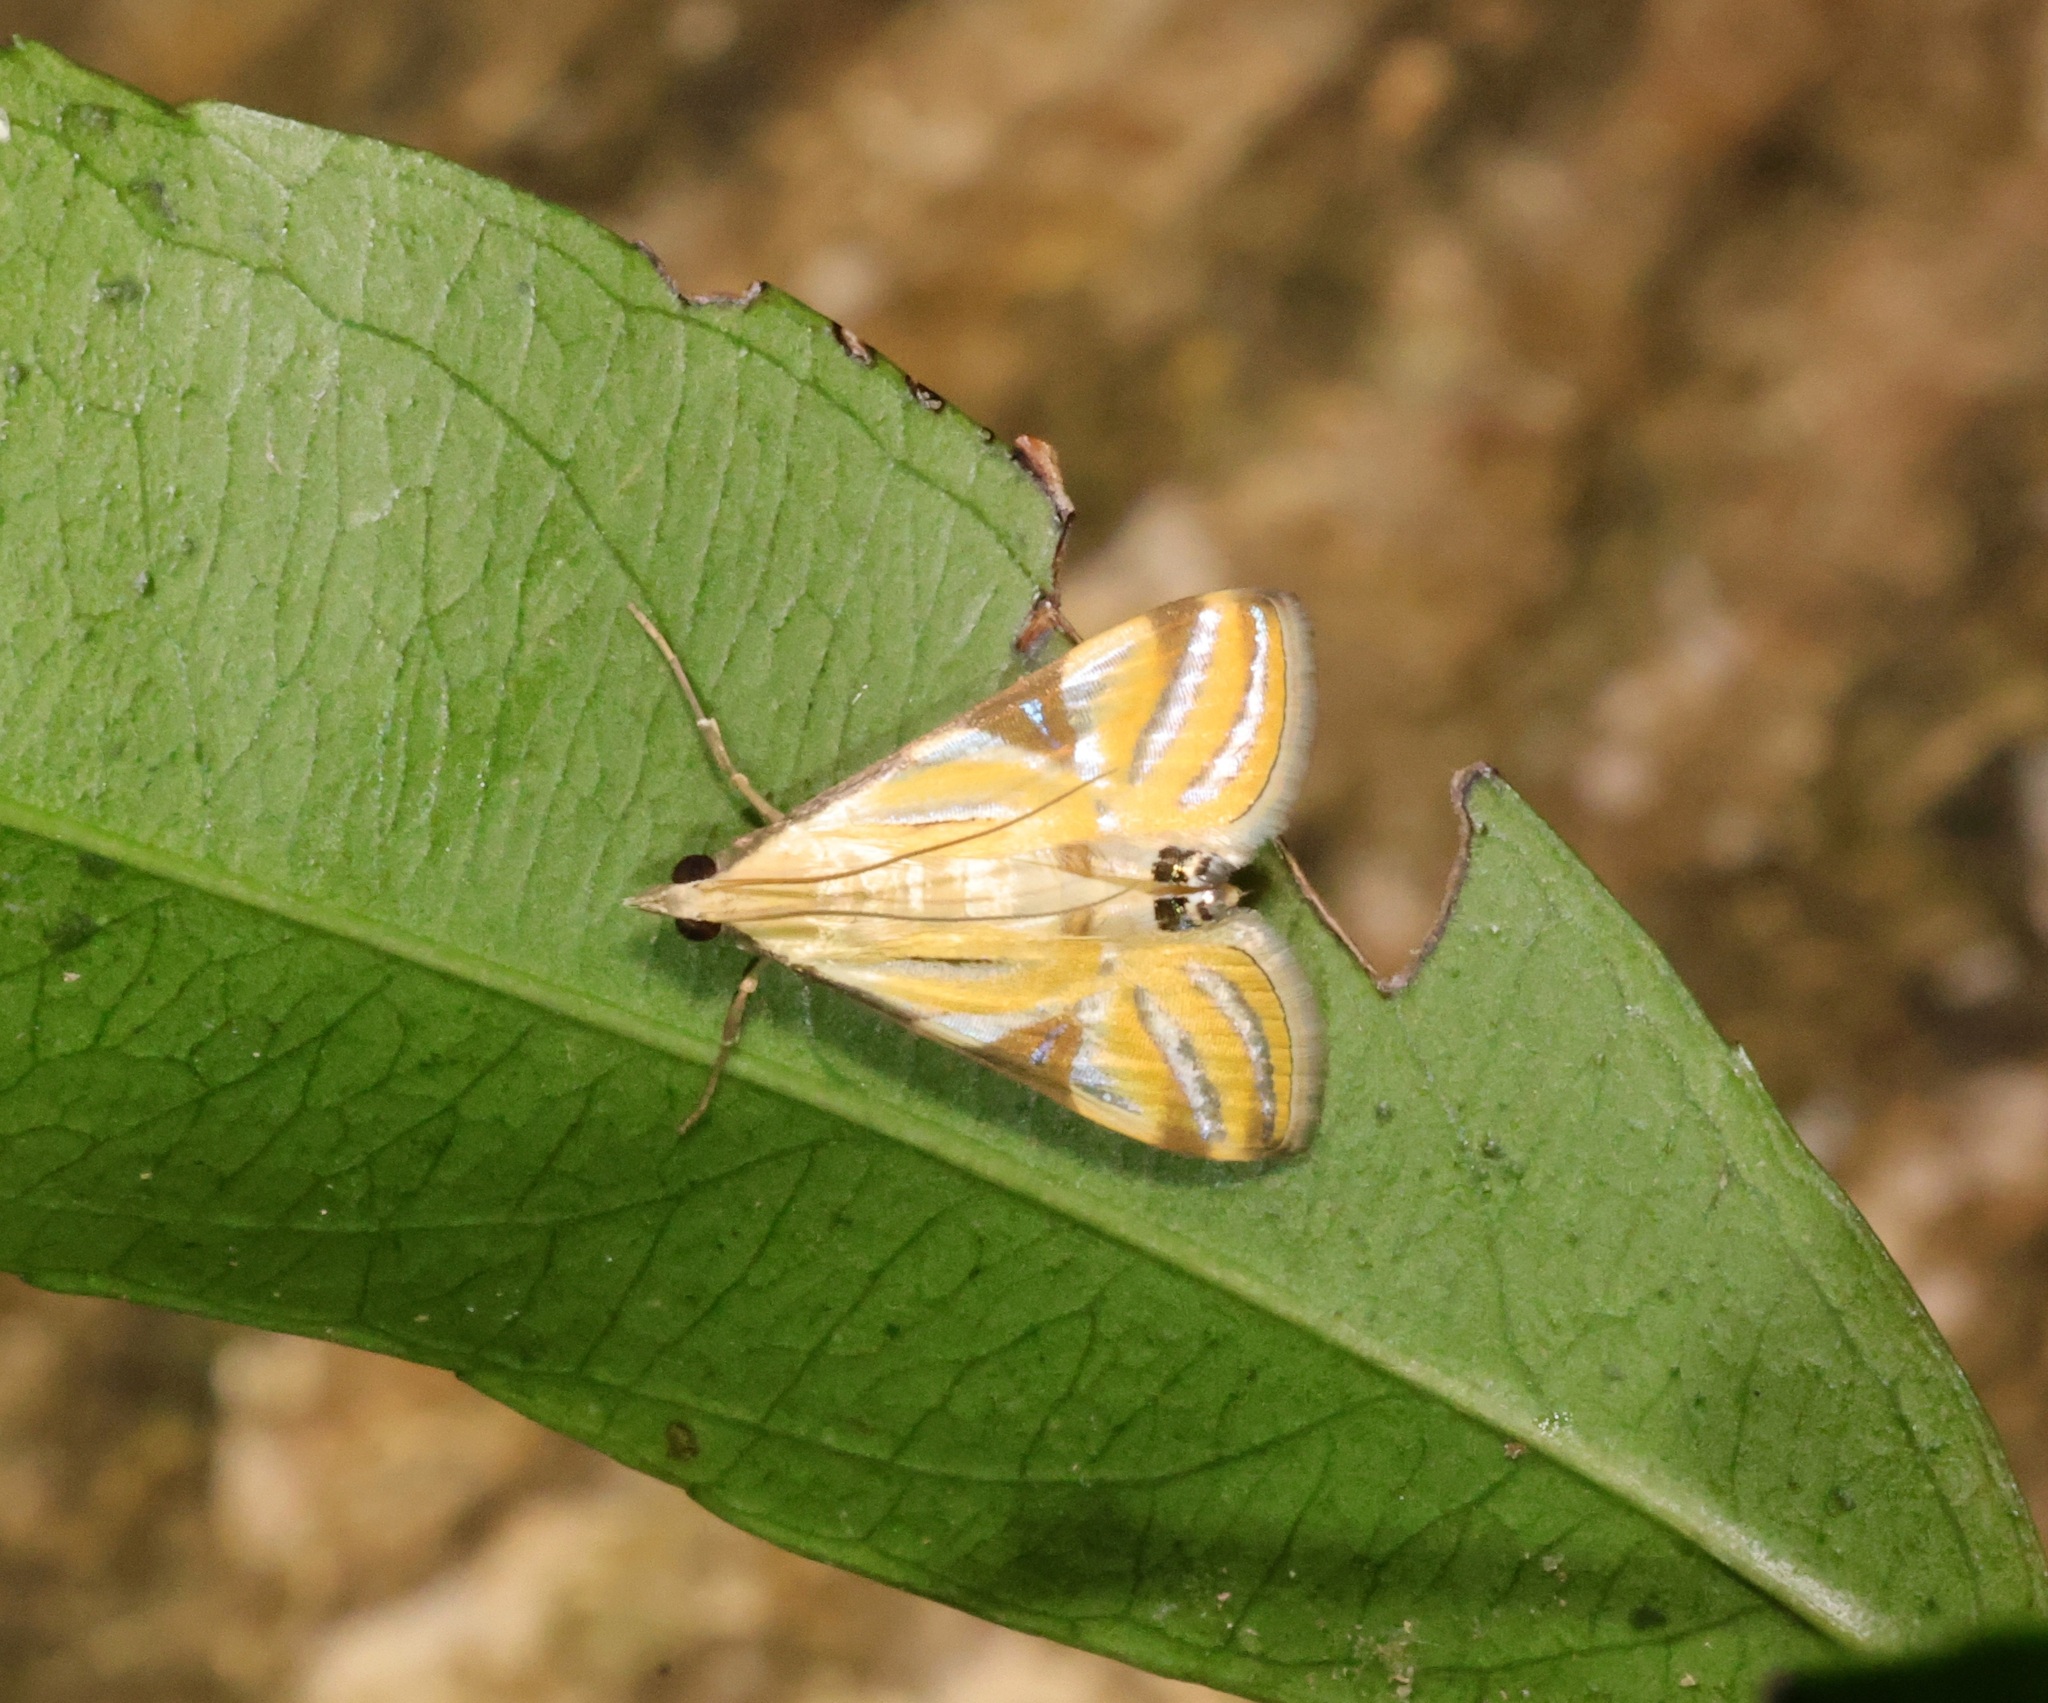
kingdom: Animalia
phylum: Arthropoda
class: Insecta
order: Lepidoptera
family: Crambidae
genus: Talanga
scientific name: Talanga sexpunctalis
